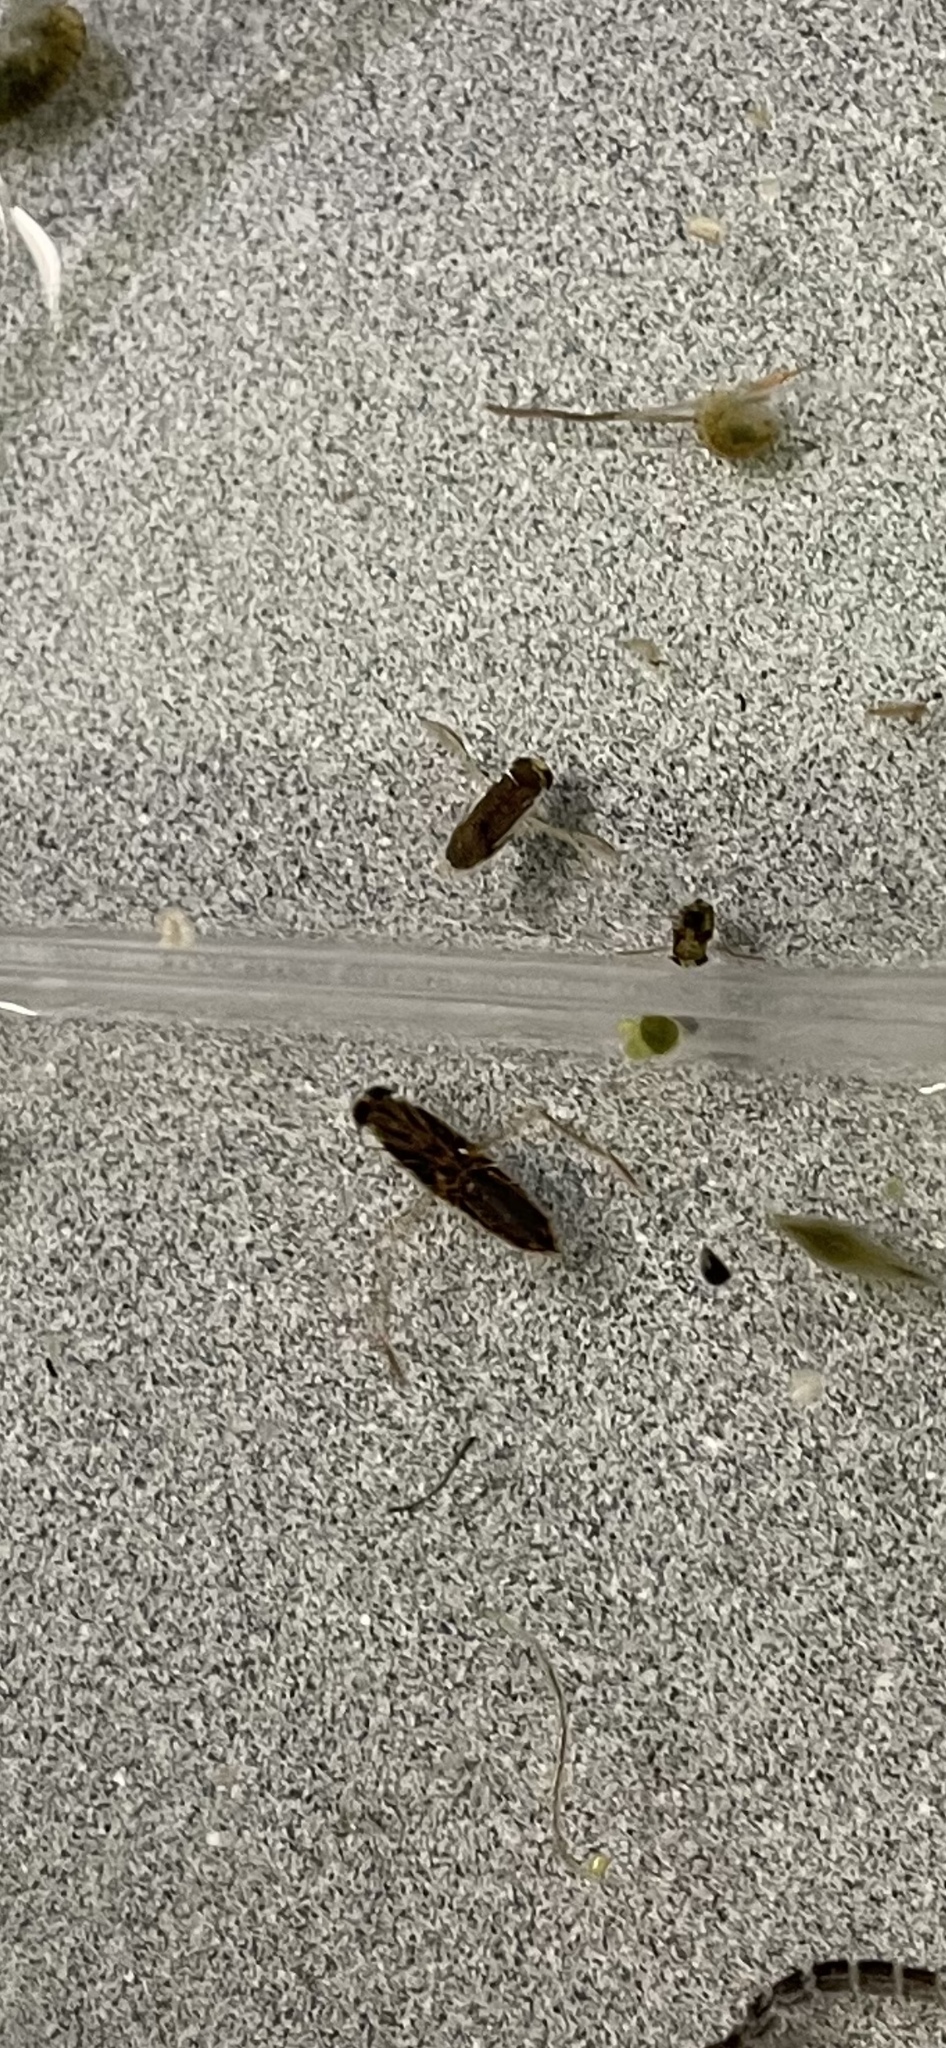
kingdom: Animalia
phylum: Arthropoda
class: Insecta
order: Hemiptera
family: Corixidae
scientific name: Corixidae
